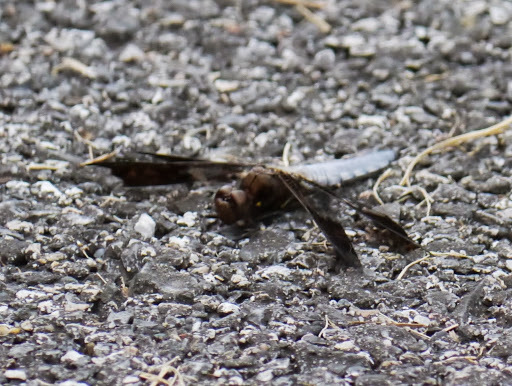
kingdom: Animalia
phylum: Arthropoda
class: Insecta
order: Odonata
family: Libellulidae
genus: Plathemis
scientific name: Plathemis lydia
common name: Common whitetail
